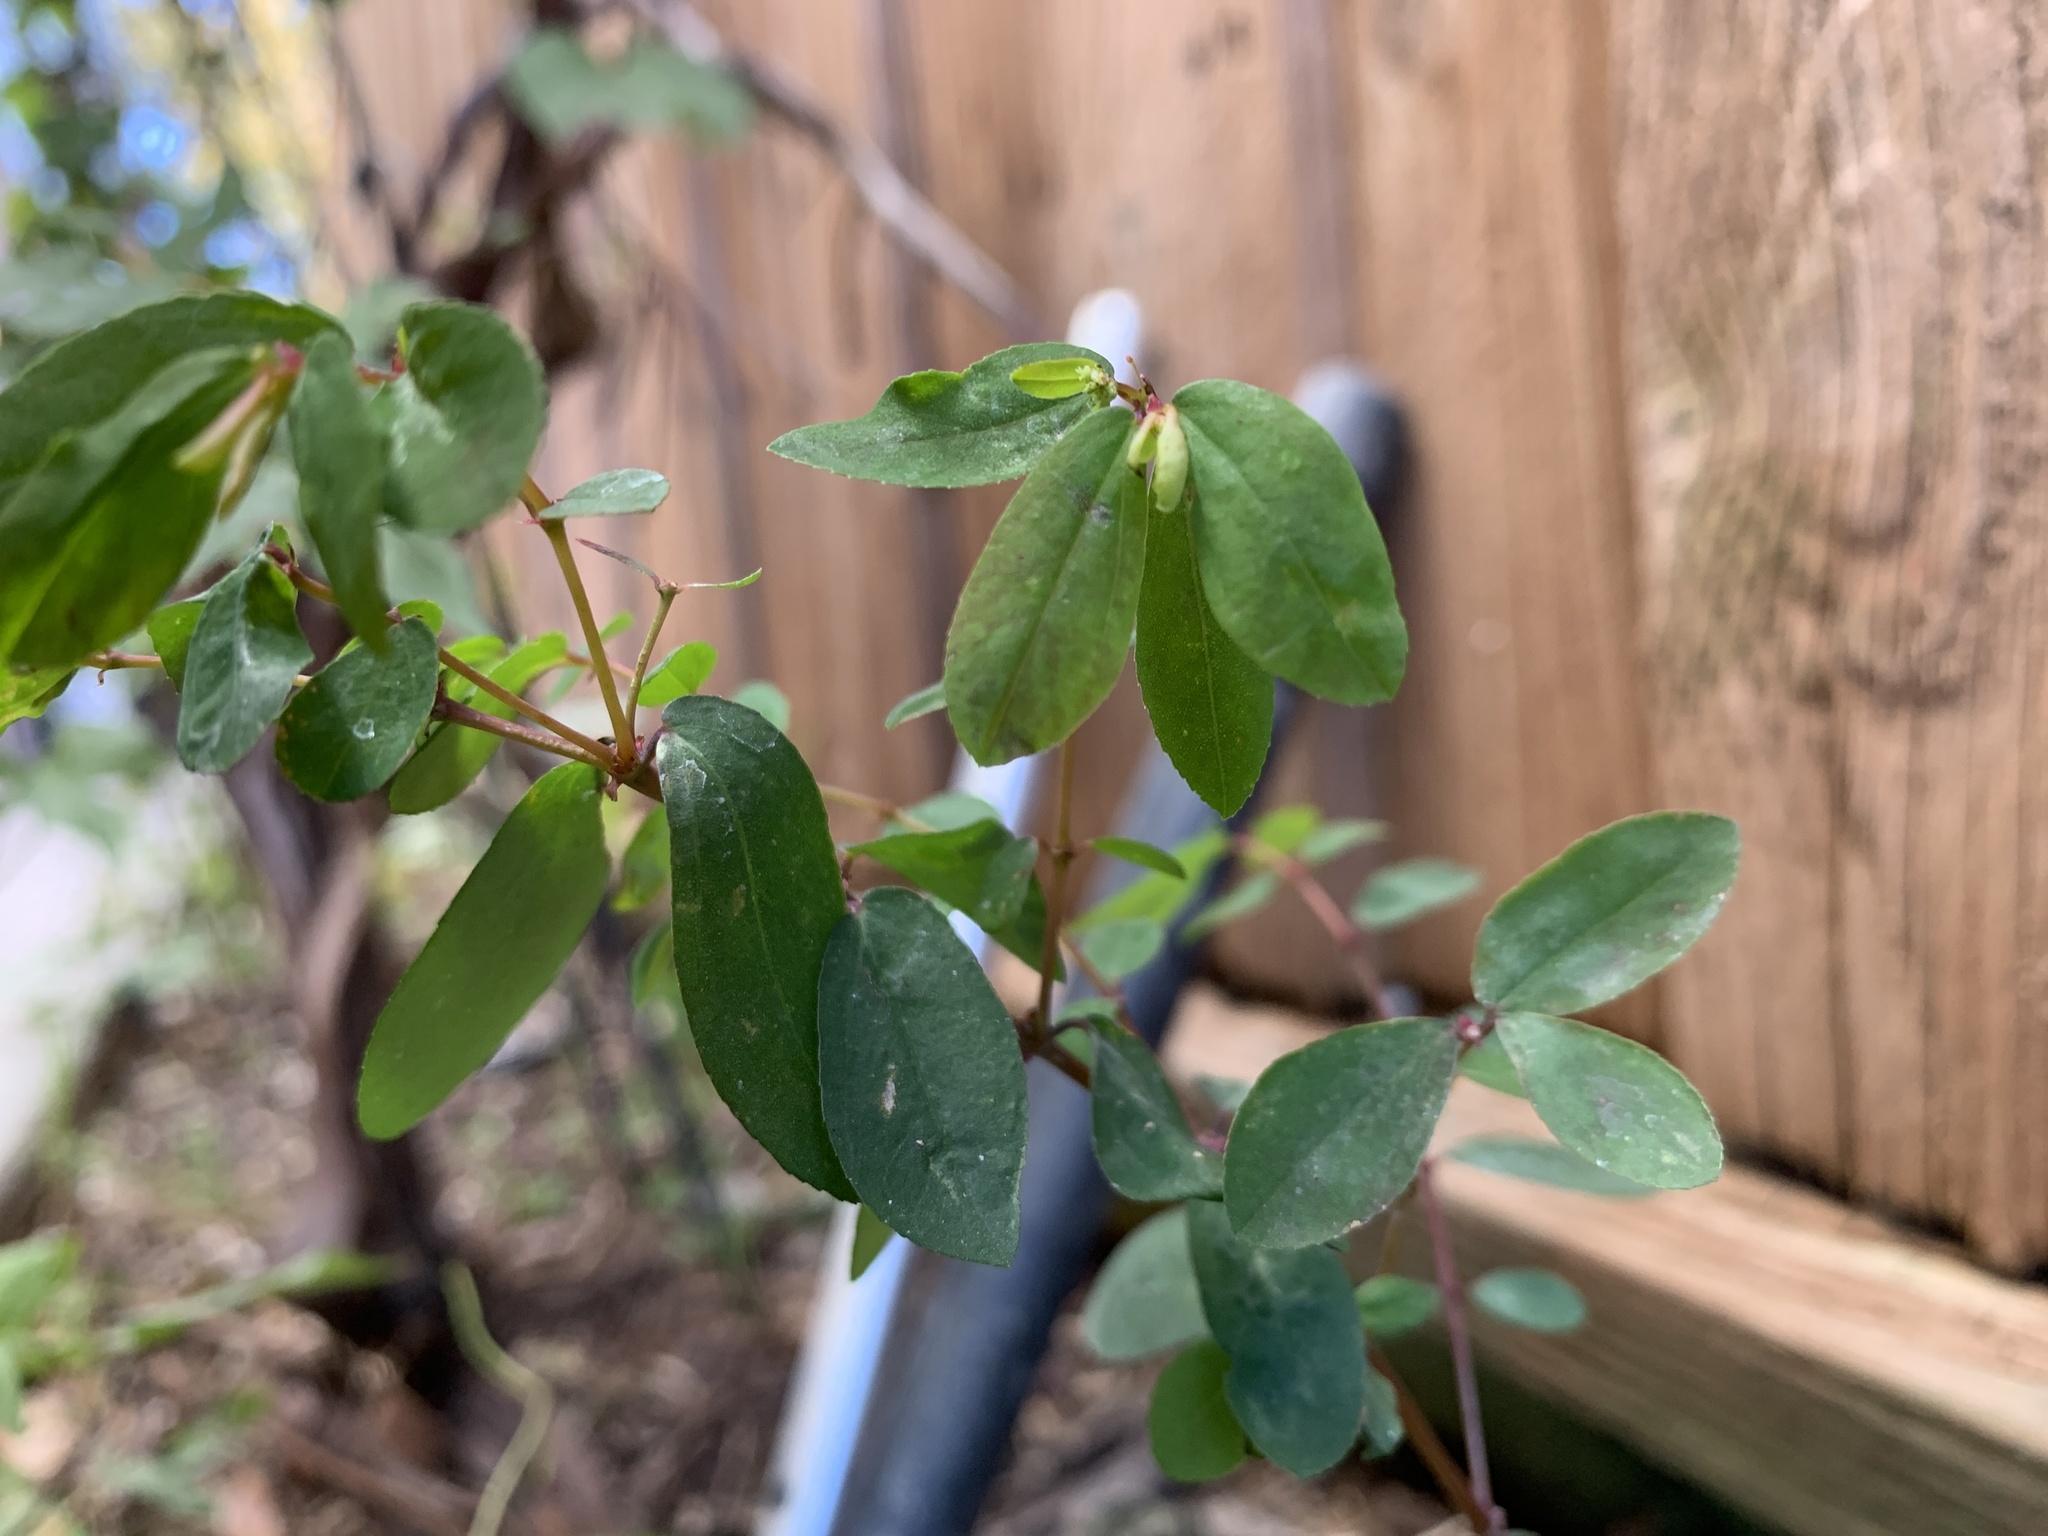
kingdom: Plantae
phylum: Tracheophyta
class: Magnoliopsida
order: Malpighiales
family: Euphorbiaceae
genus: Euphorbia
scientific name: Euphorbia hypericifolia
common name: Graceful sandmat
